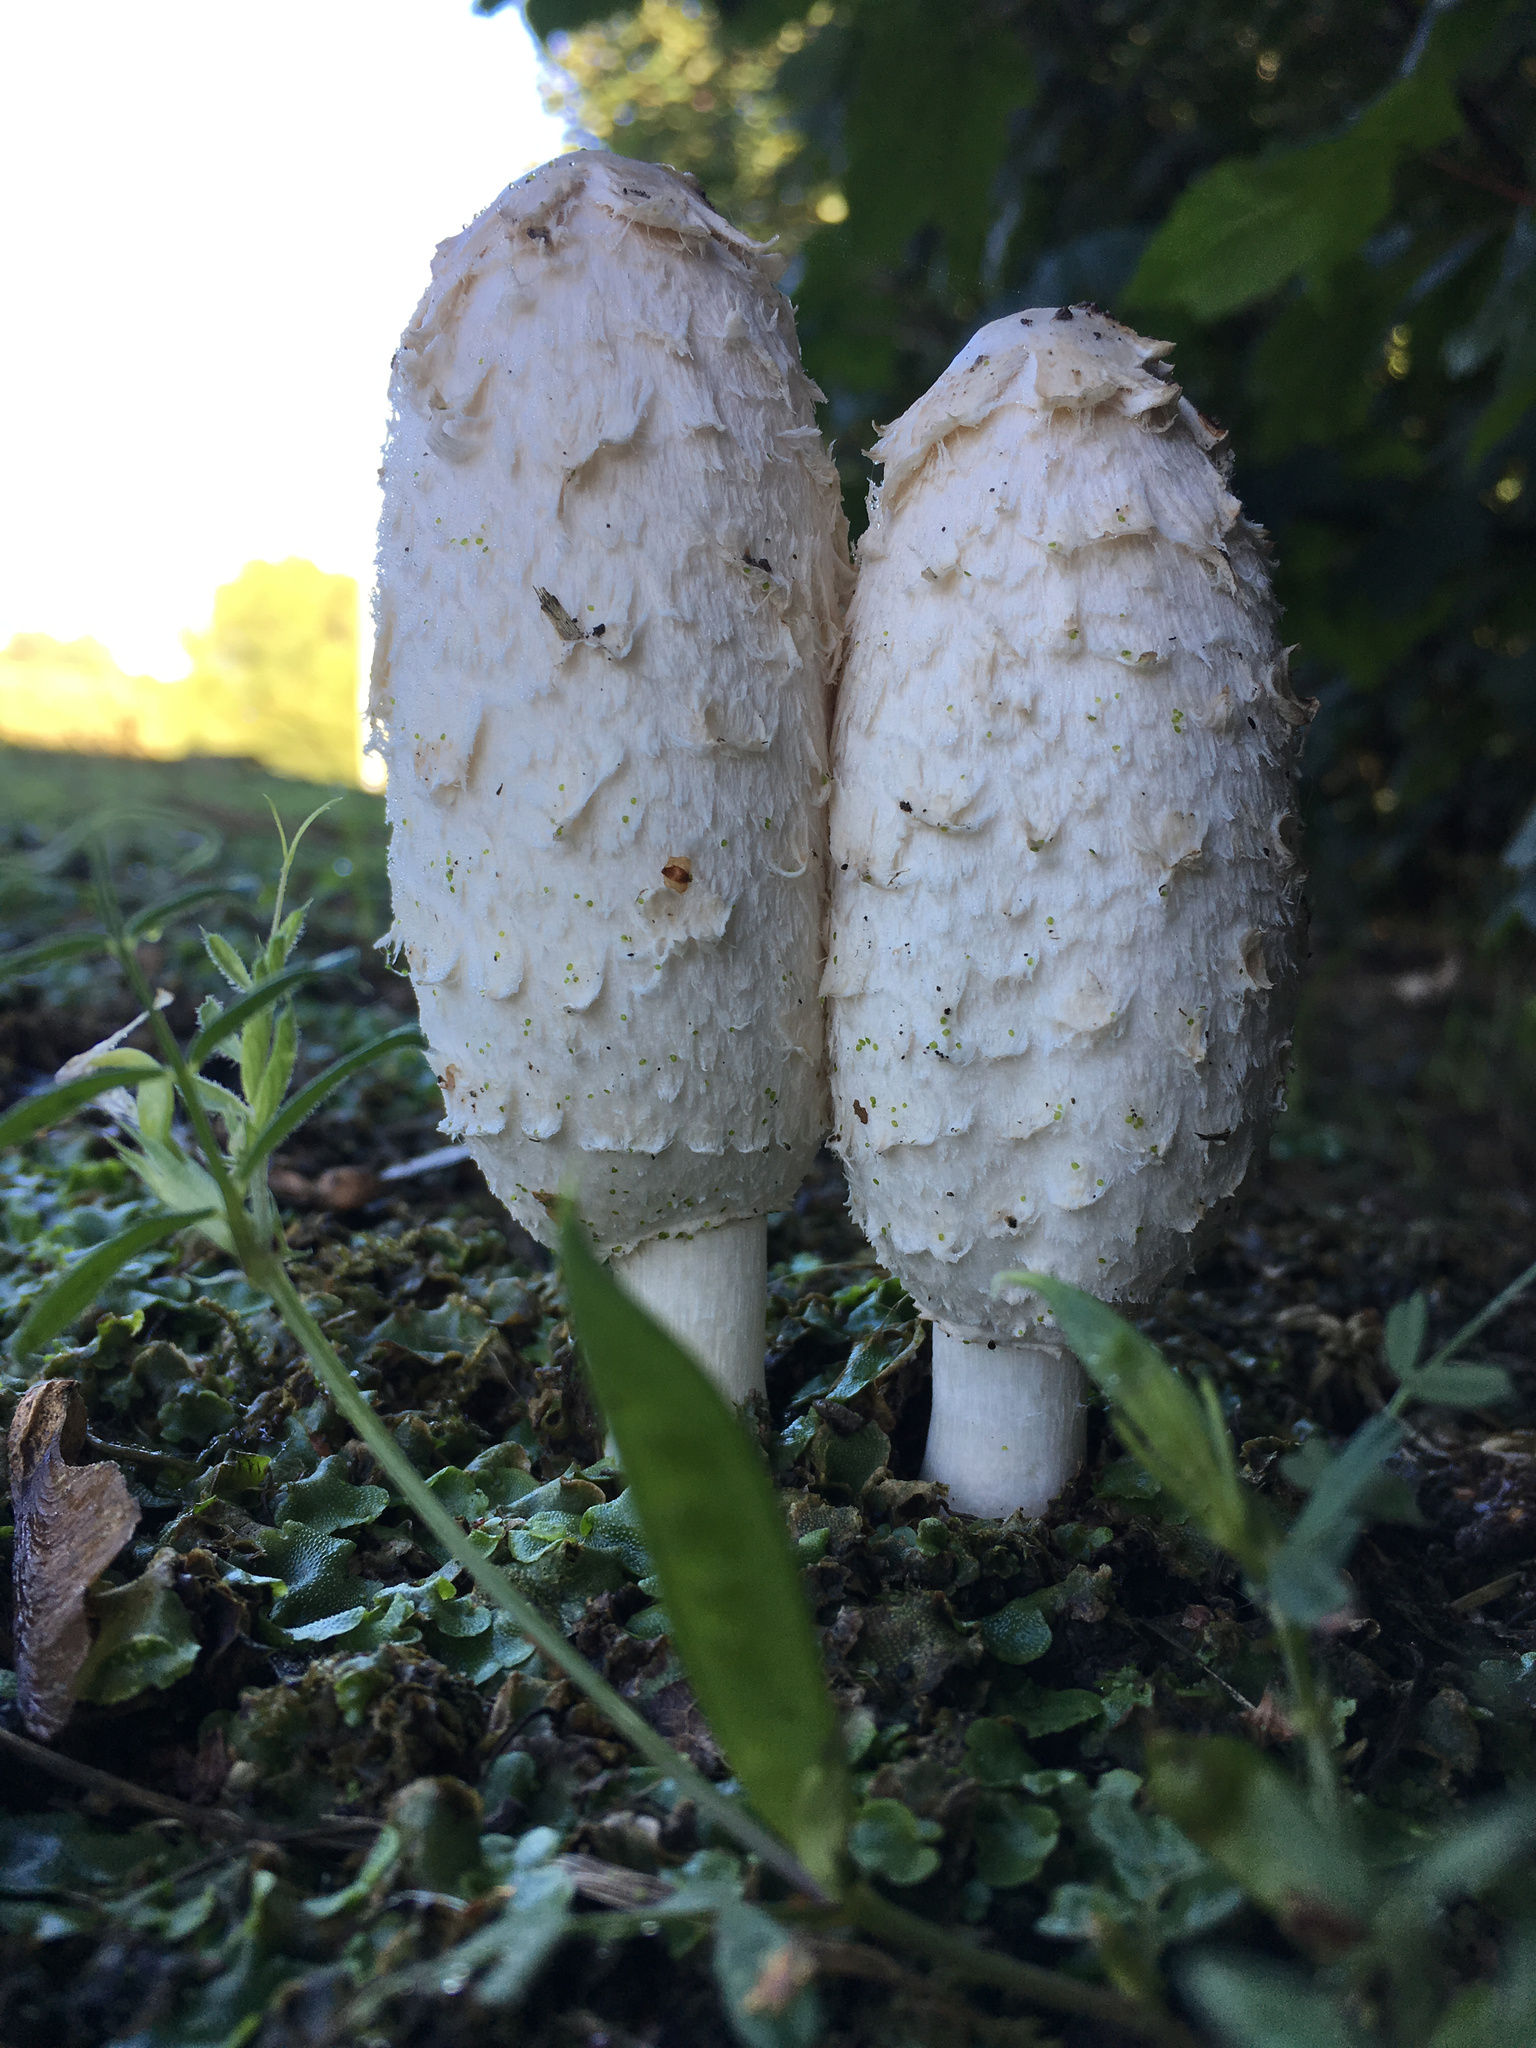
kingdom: Fungi
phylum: Basidiomycota
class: Agaricomycetes
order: Agaricales
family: Agaricaceae
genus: Coprinus
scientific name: Coprinus comatus
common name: Lawyer's wig
